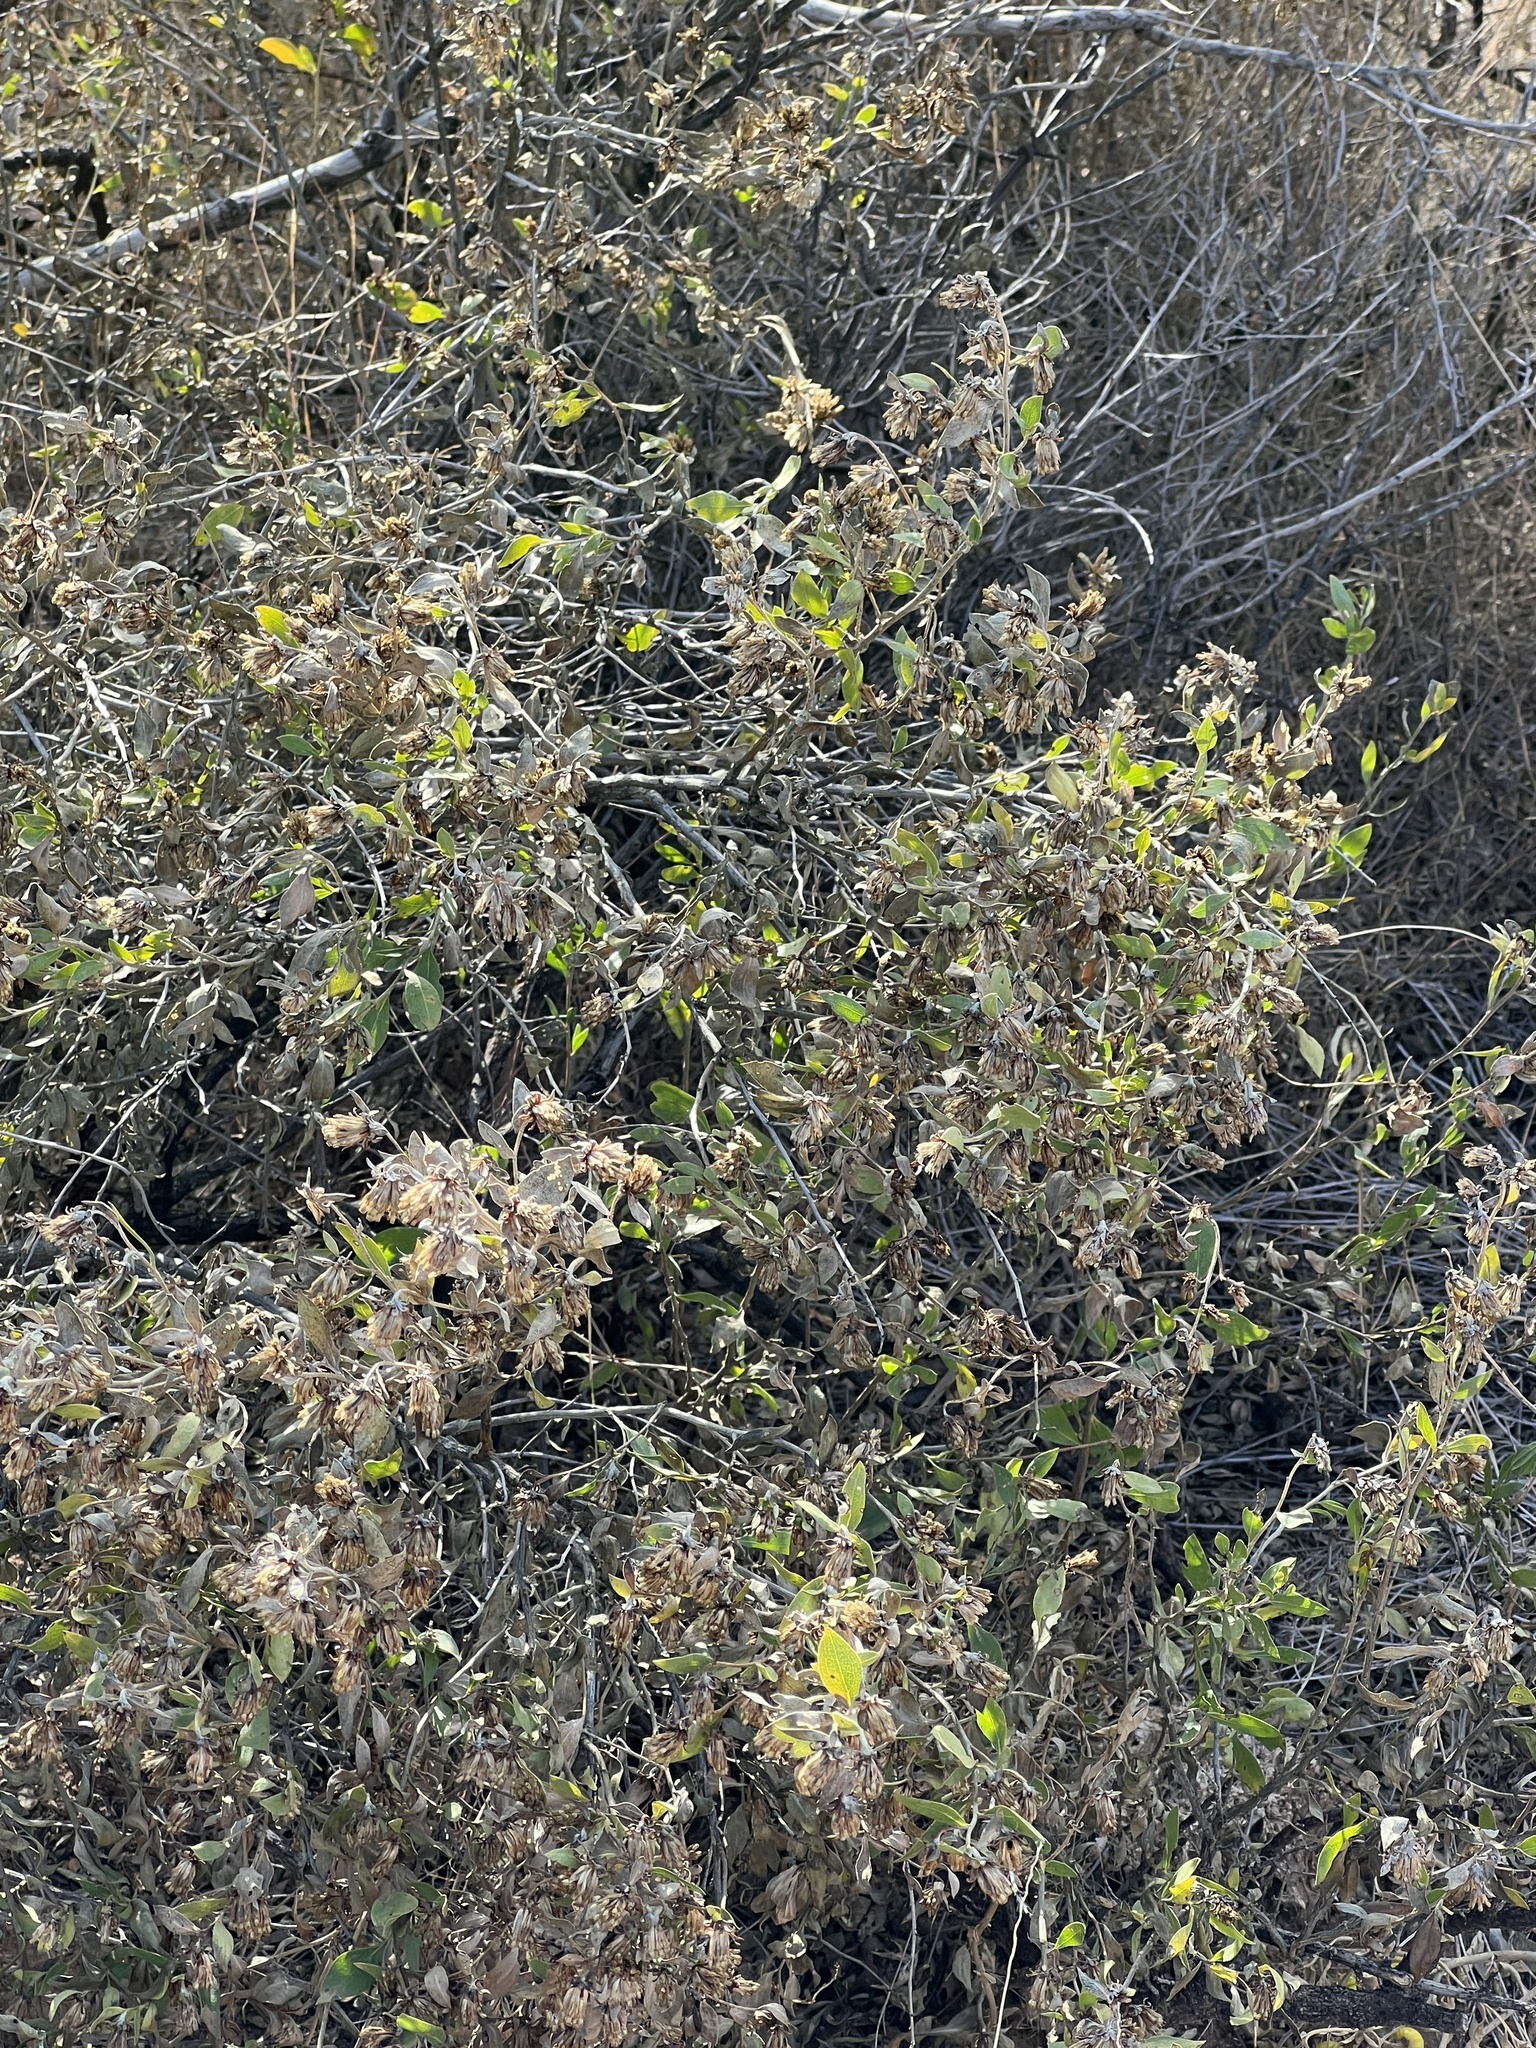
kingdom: Plantae
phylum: Tracheophyta
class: Magnoliopsida
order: Asterales
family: Asteraceae
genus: Flourensia
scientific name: Flourensia cernua
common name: Varnishbush
